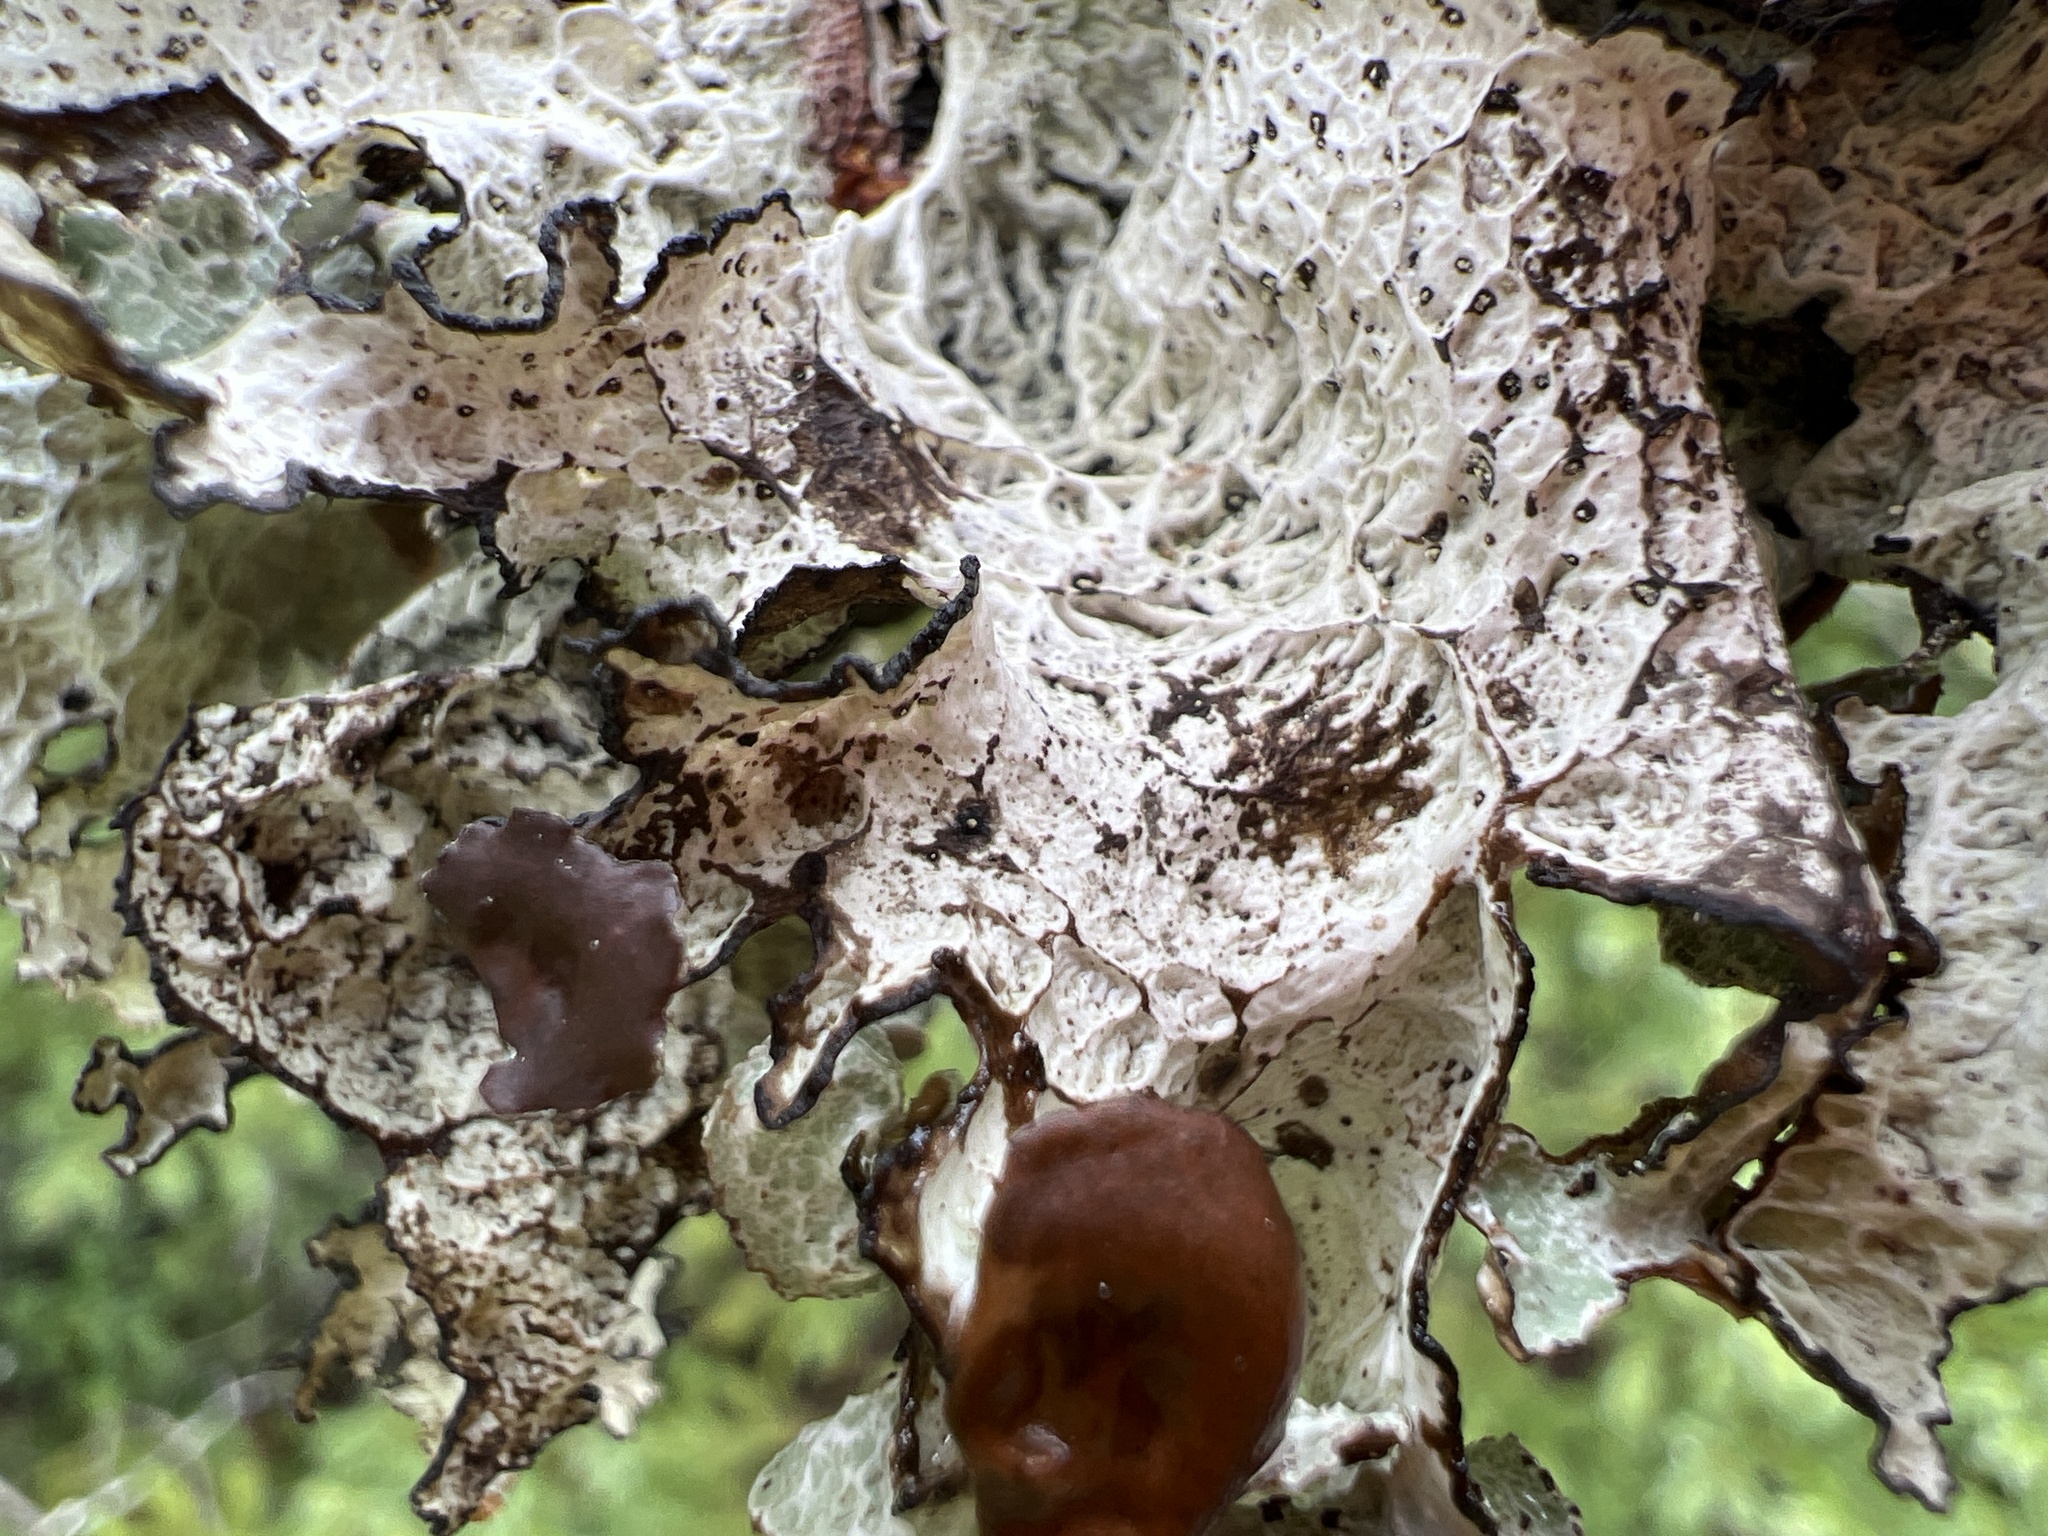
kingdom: Fungi
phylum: Ascomycota
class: Lecanoromycetes
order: Lecanorales
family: Parmeliaceae
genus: Platismatia
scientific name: Platismatia tuckermanii
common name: Crumpled rag lichen
